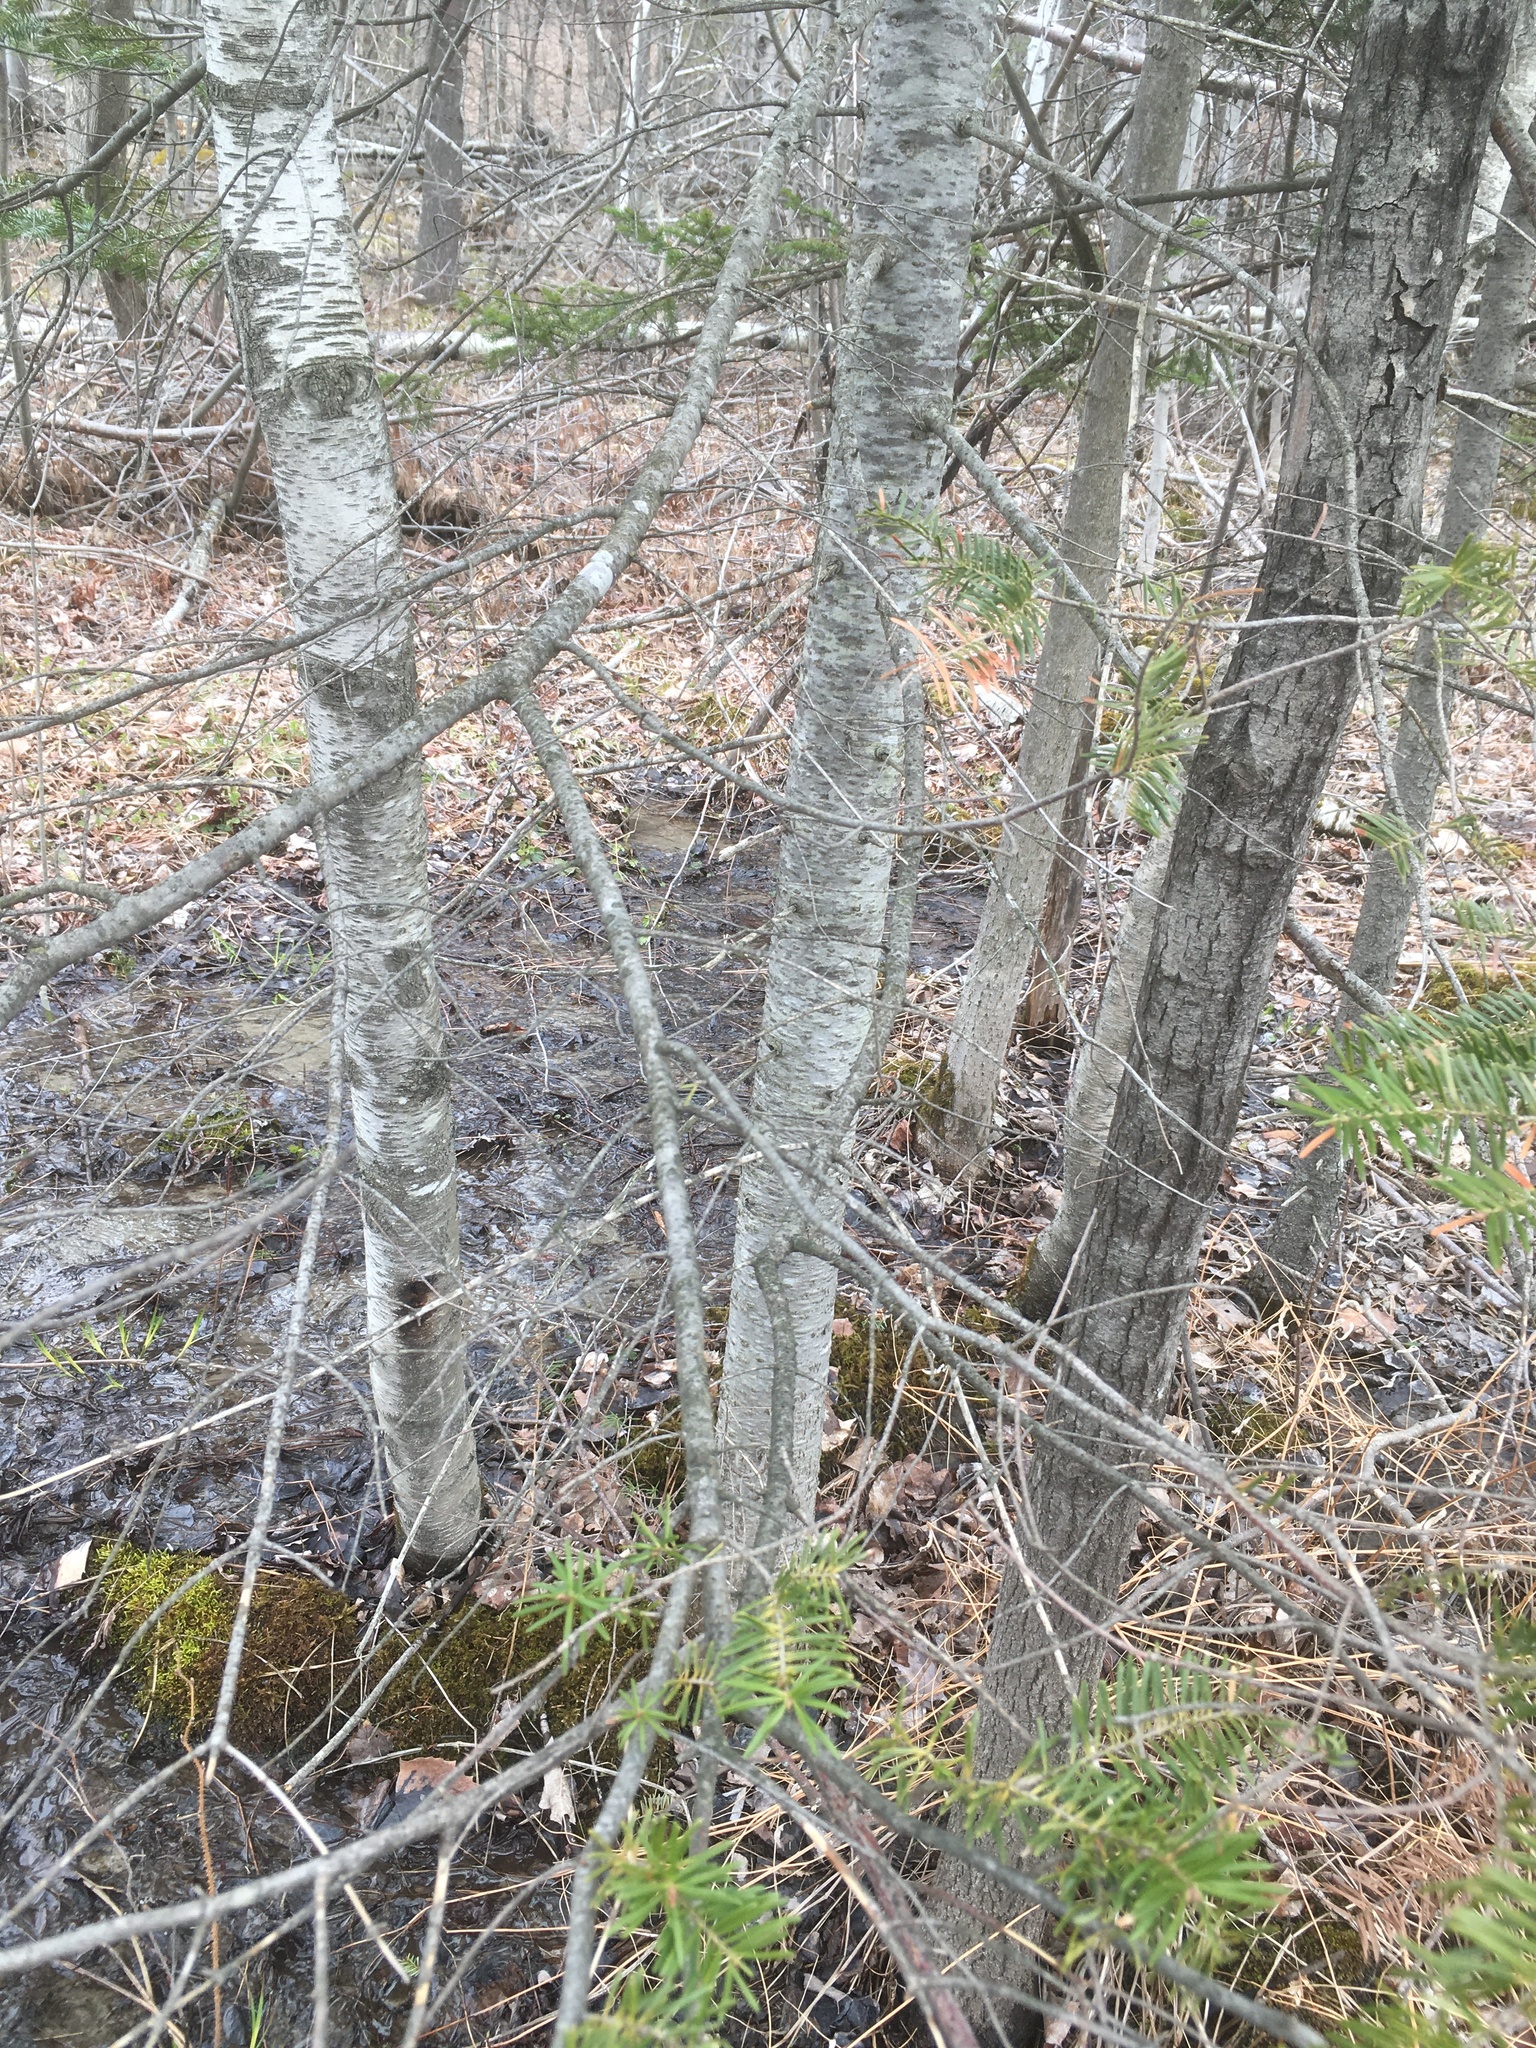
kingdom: Plantae
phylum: Tracheophyta
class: Pinopsida
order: Pinales
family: Pinaceae
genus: Abies
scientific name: Abies balsamea
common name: Balsam fir
